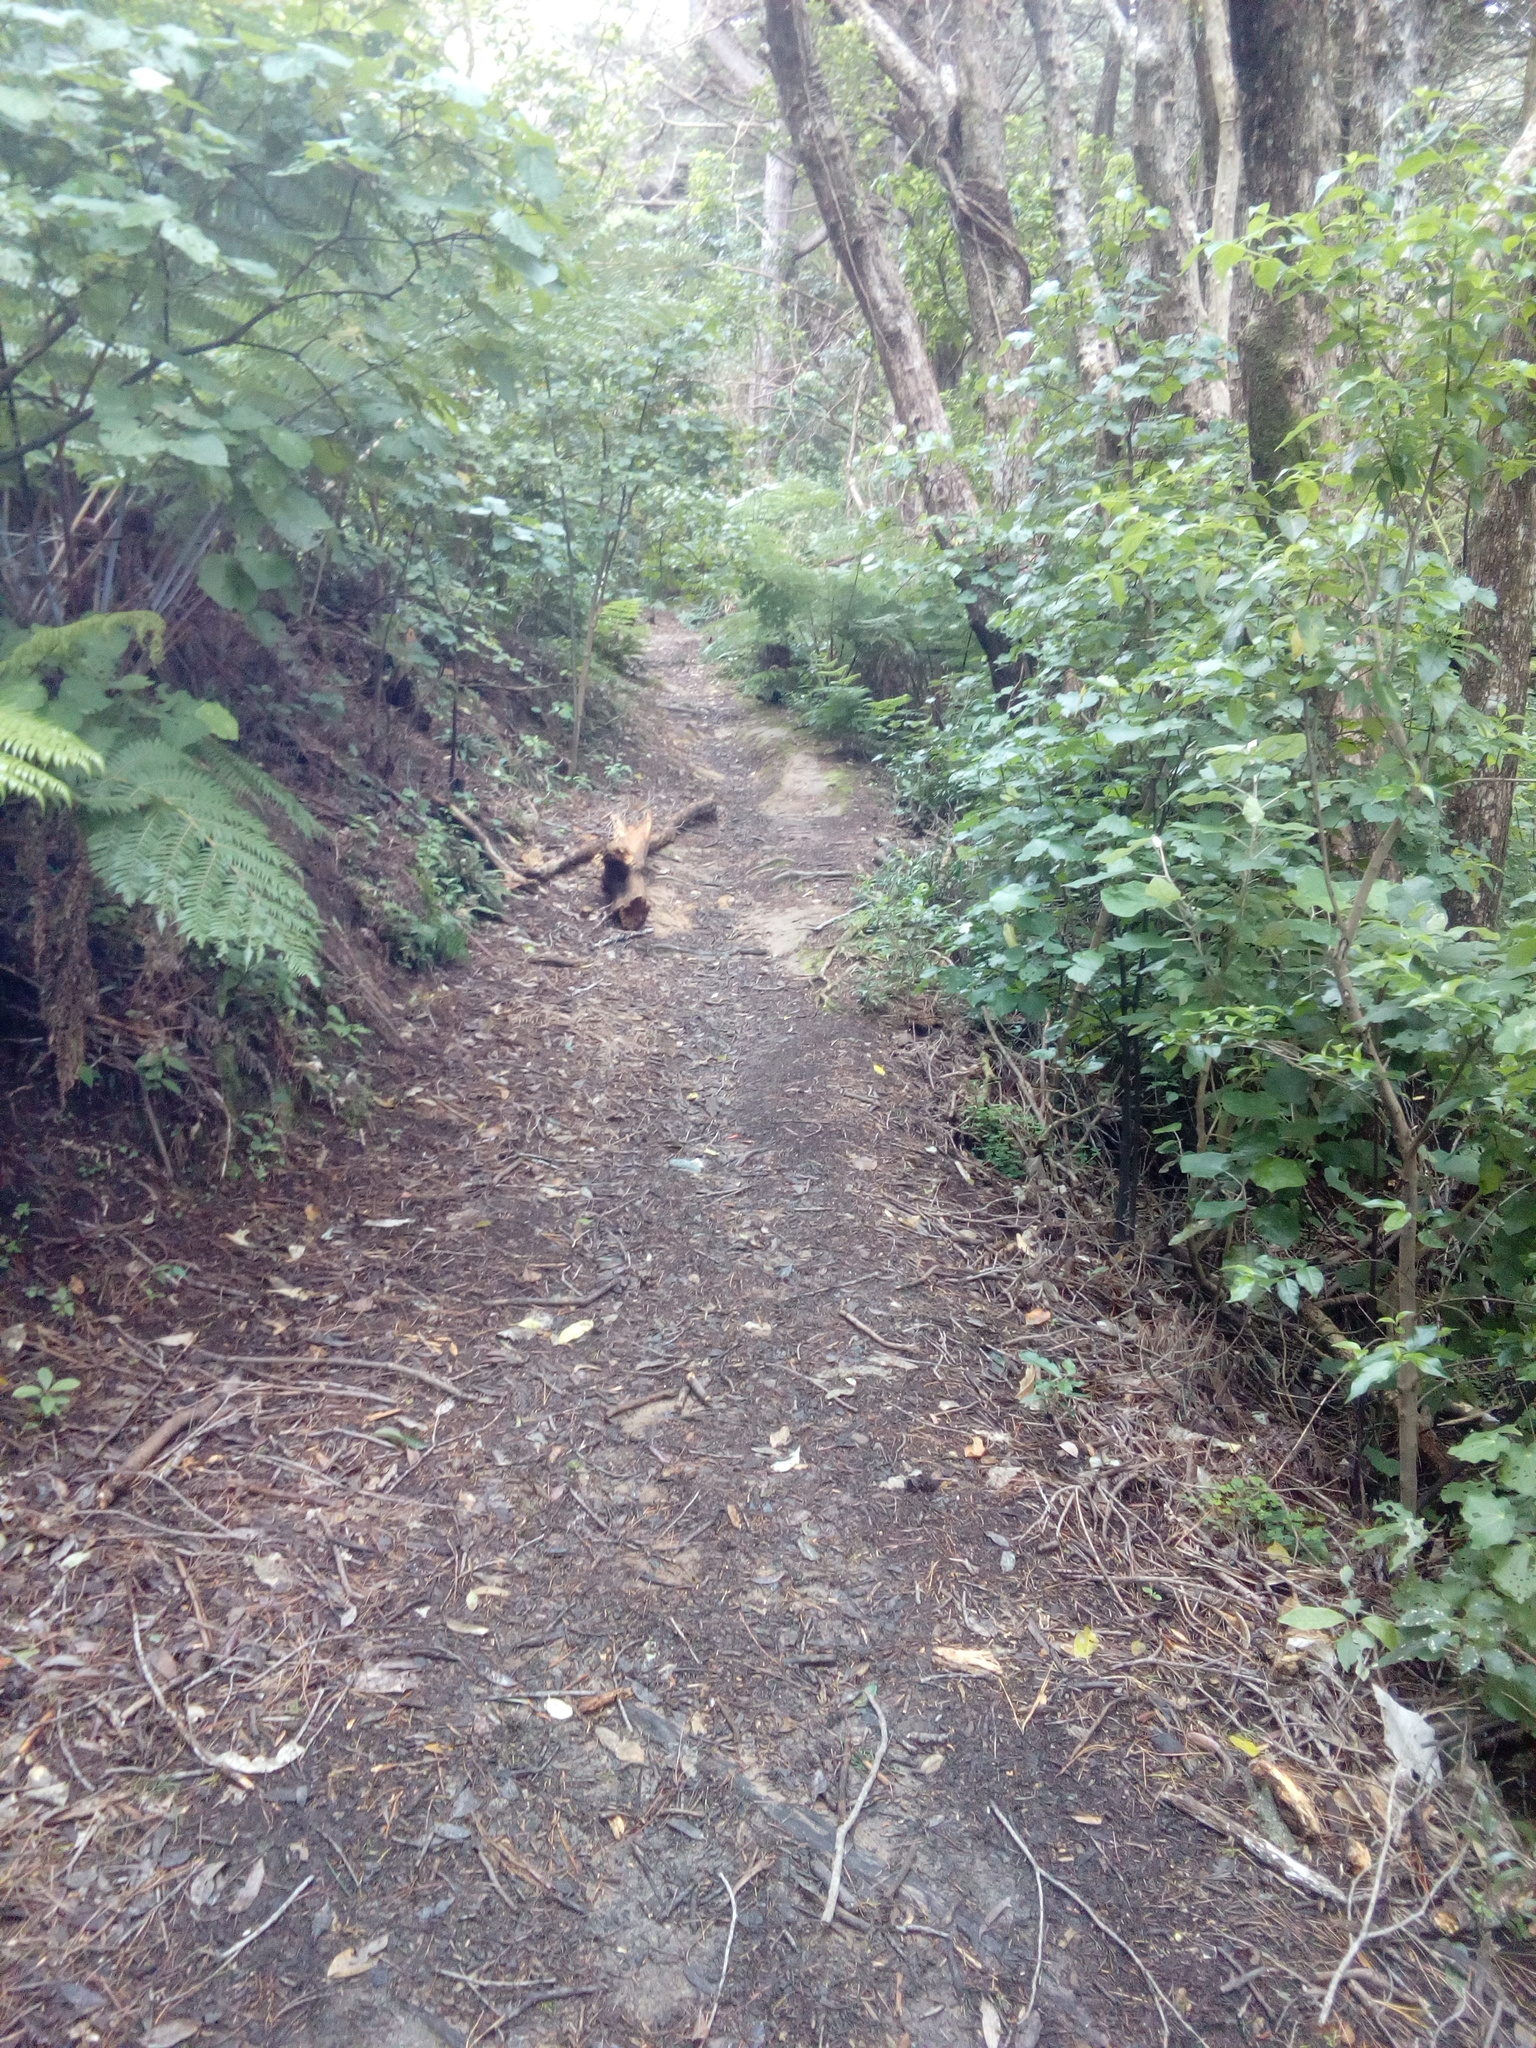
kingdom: Plantae
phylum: Tracheophyta
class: Magnoliopsida
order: Malpighiales
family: Violaceae
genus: Melicytus
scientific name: Melicytus ramiflorus
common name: Mahoe
